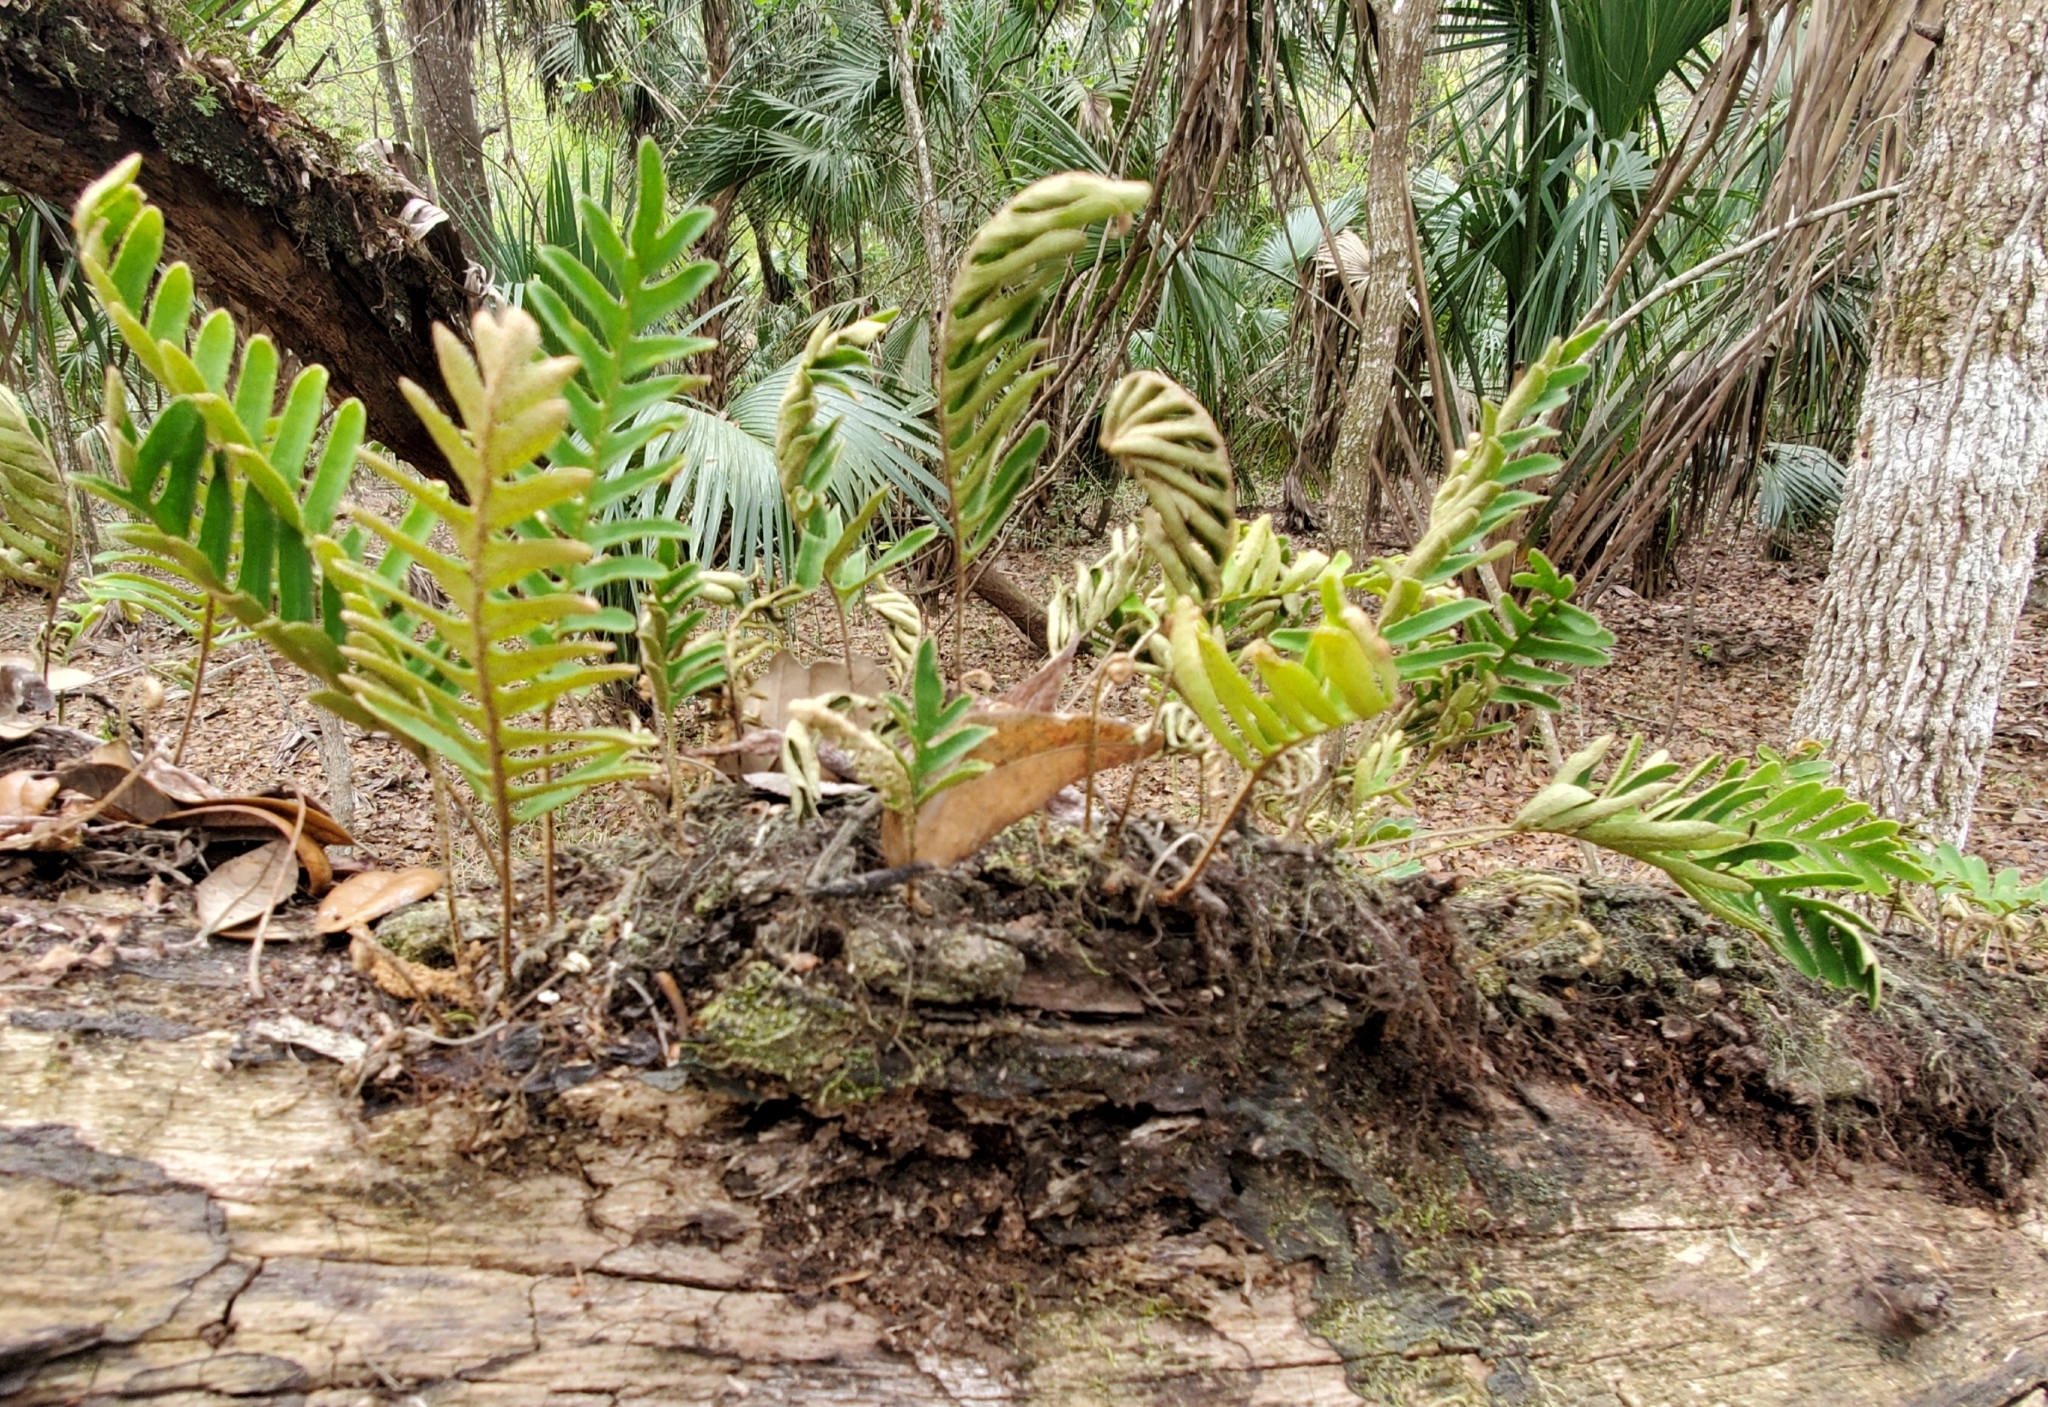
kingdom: Plantae
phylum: Tracheophyta
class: Polypodiopsida
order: Polypodiales
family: Polypodiaceae
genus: Pleopeltis
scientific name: Pleopeltis michauxiana
